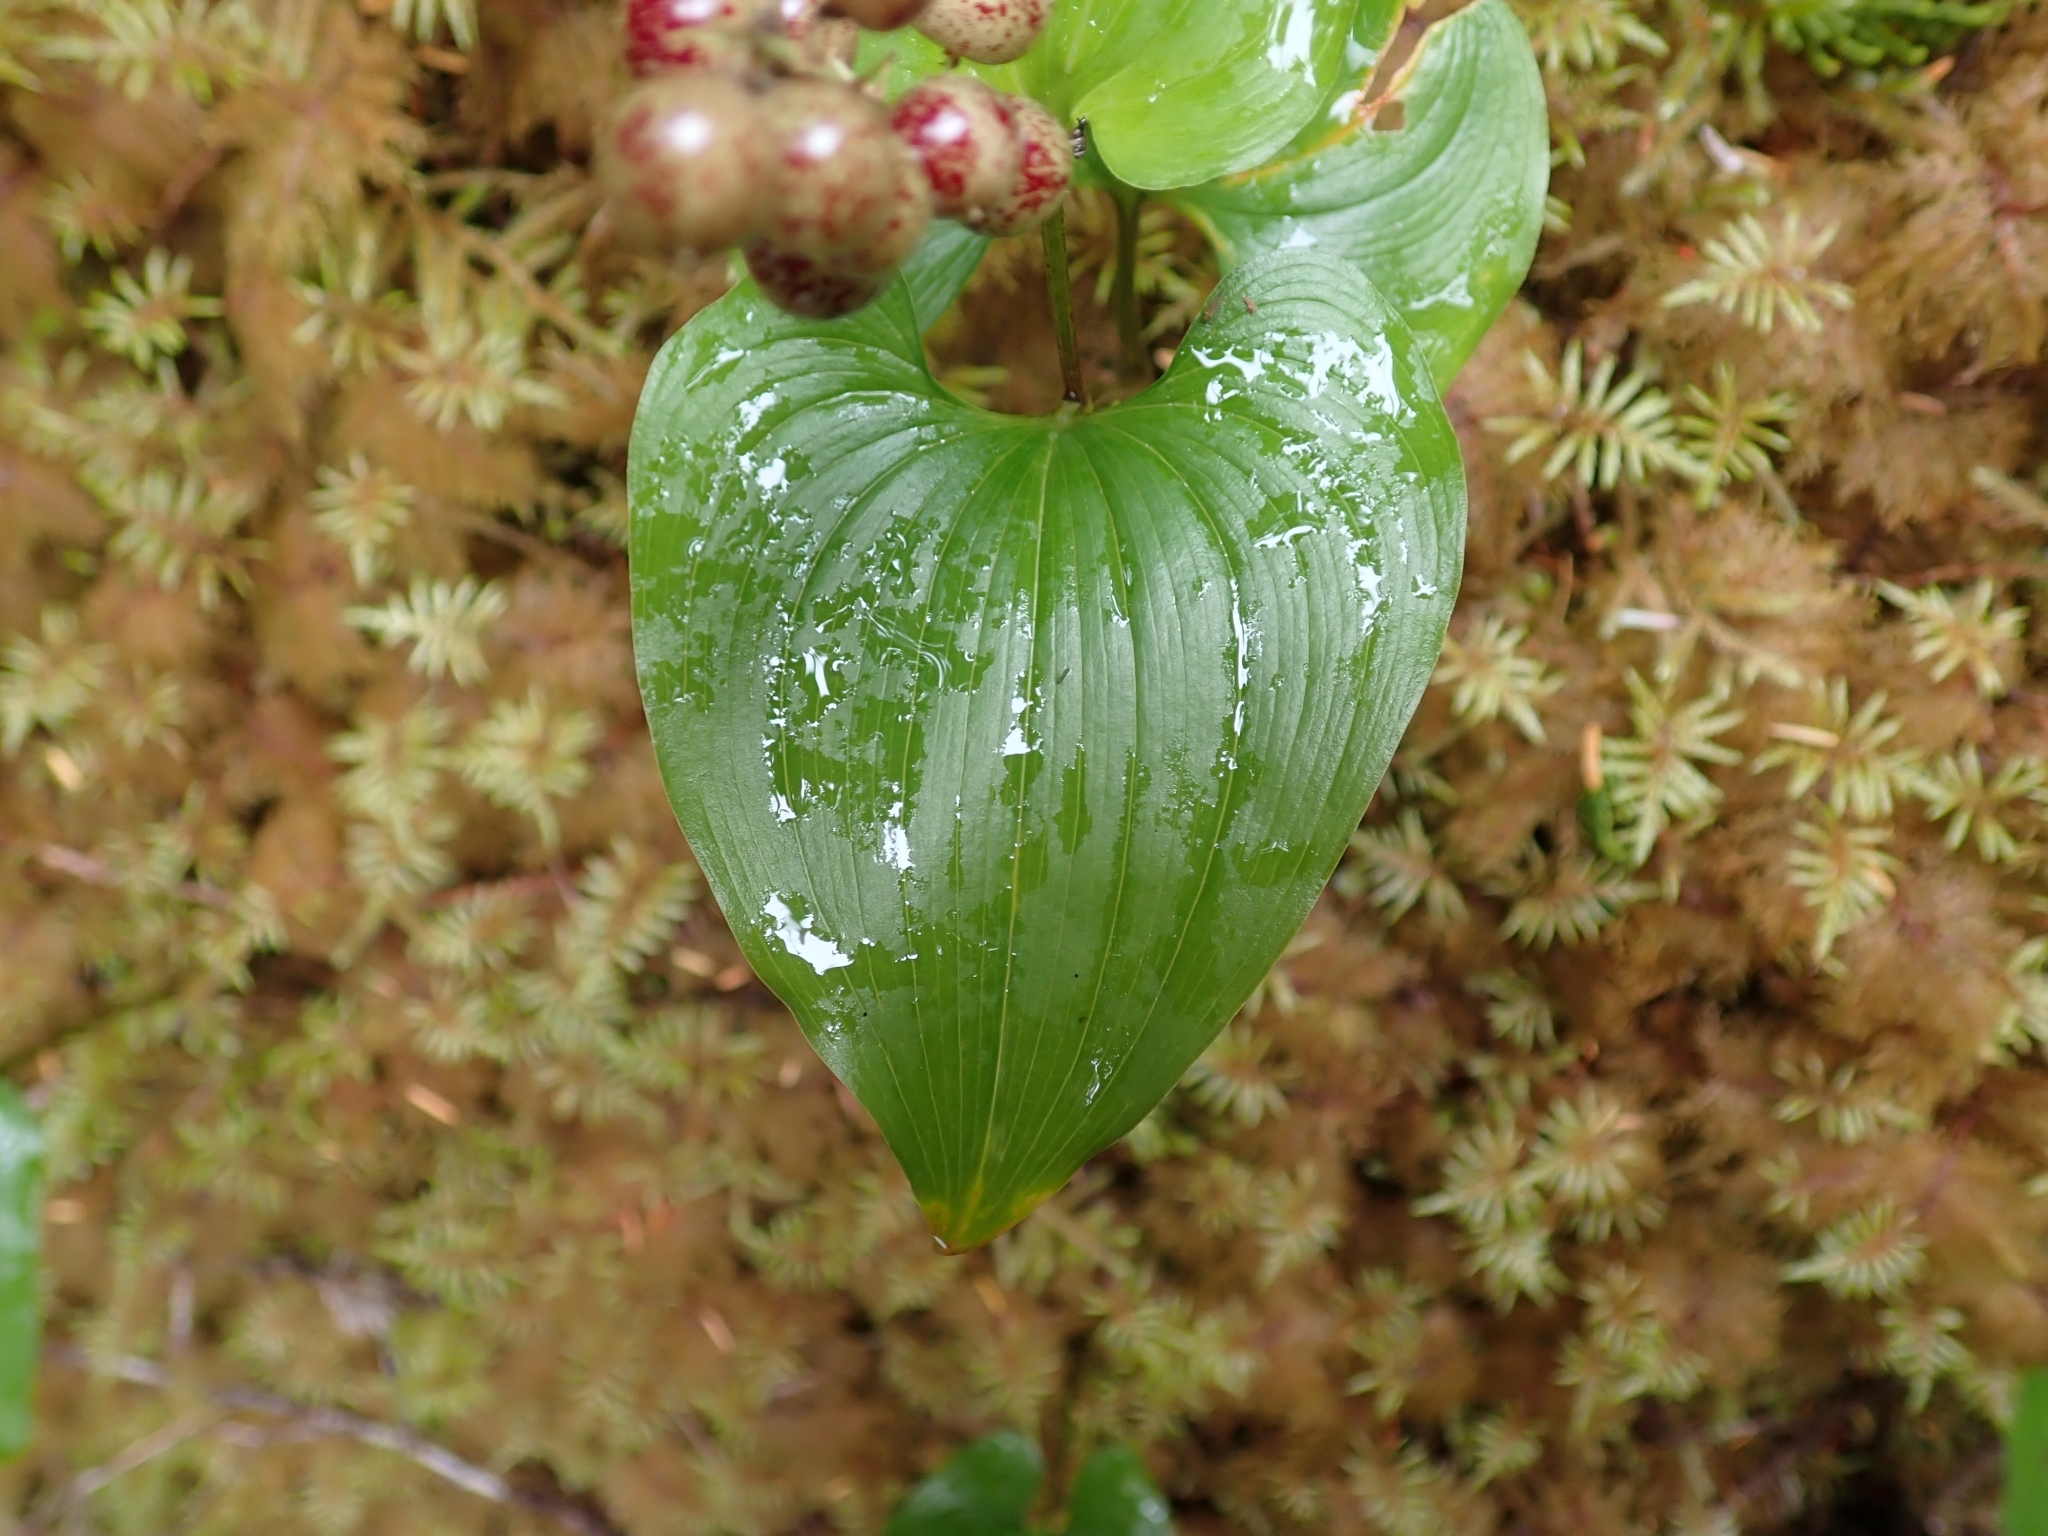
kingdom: Plantae
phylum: Tracheophyta
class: Liliopsida
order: Asparagales
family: Asparagaceae
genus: Maianthemum
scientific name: Maianthemum dilatatum
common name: False lily-of-the-valley
